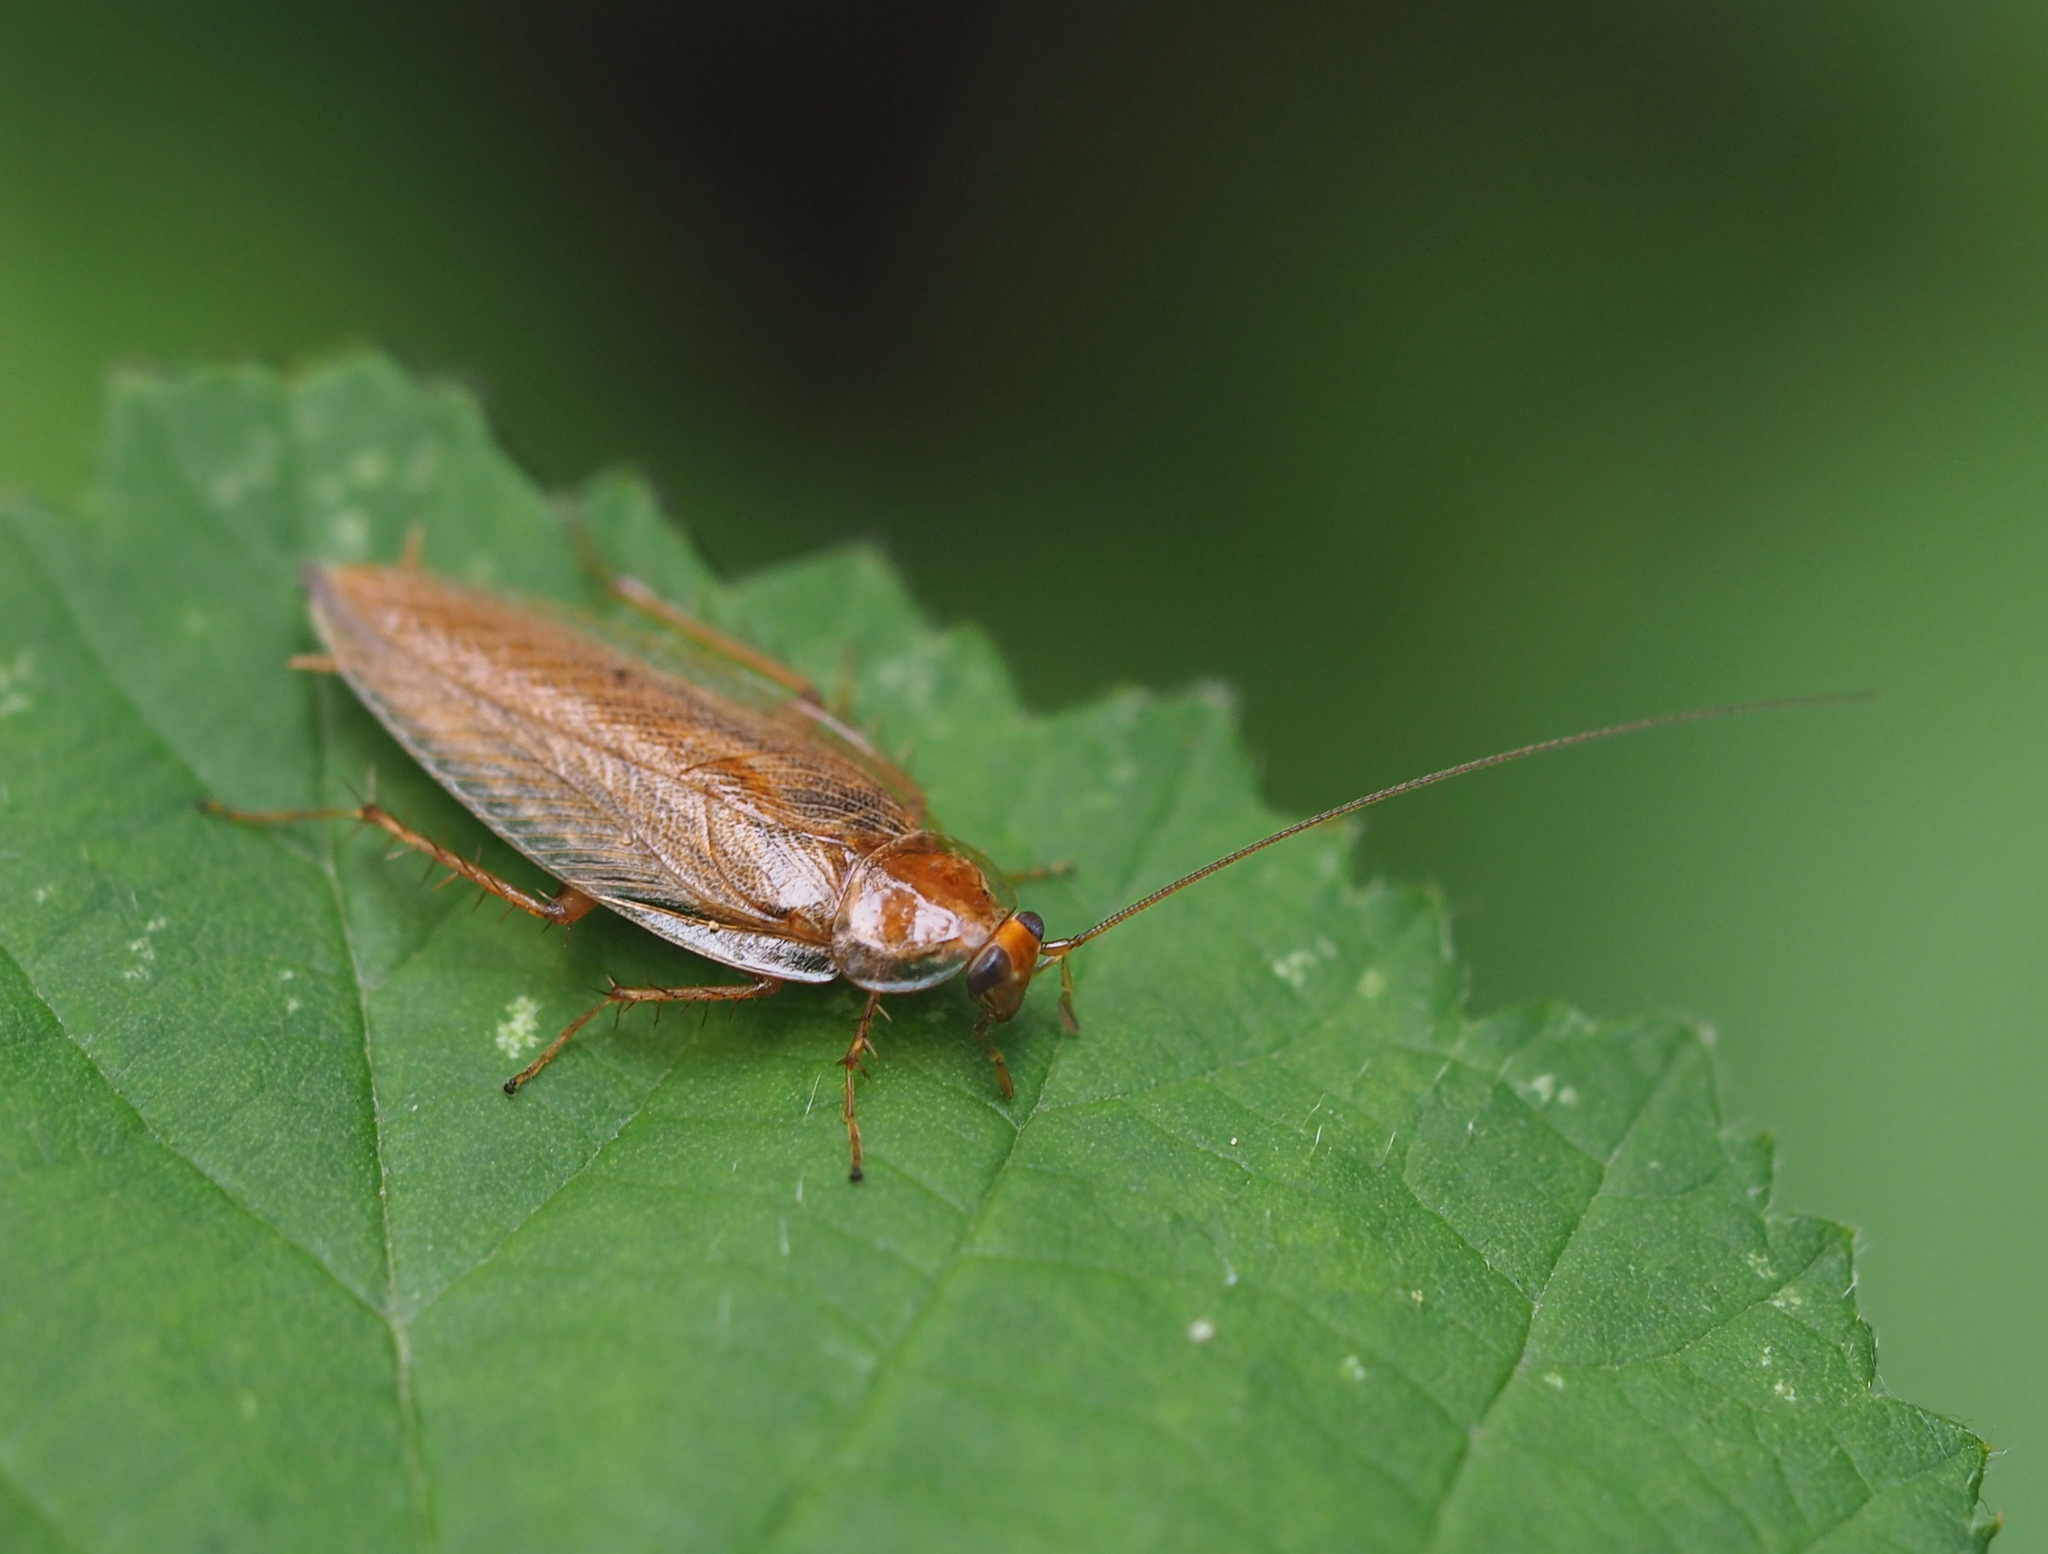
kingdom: Animalia
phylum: Arthropoda
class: Insecta
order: Blattodea
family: Ectobiidae
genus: Ectobius
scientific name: Ectobius vittiventris
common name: Garden cockroach
